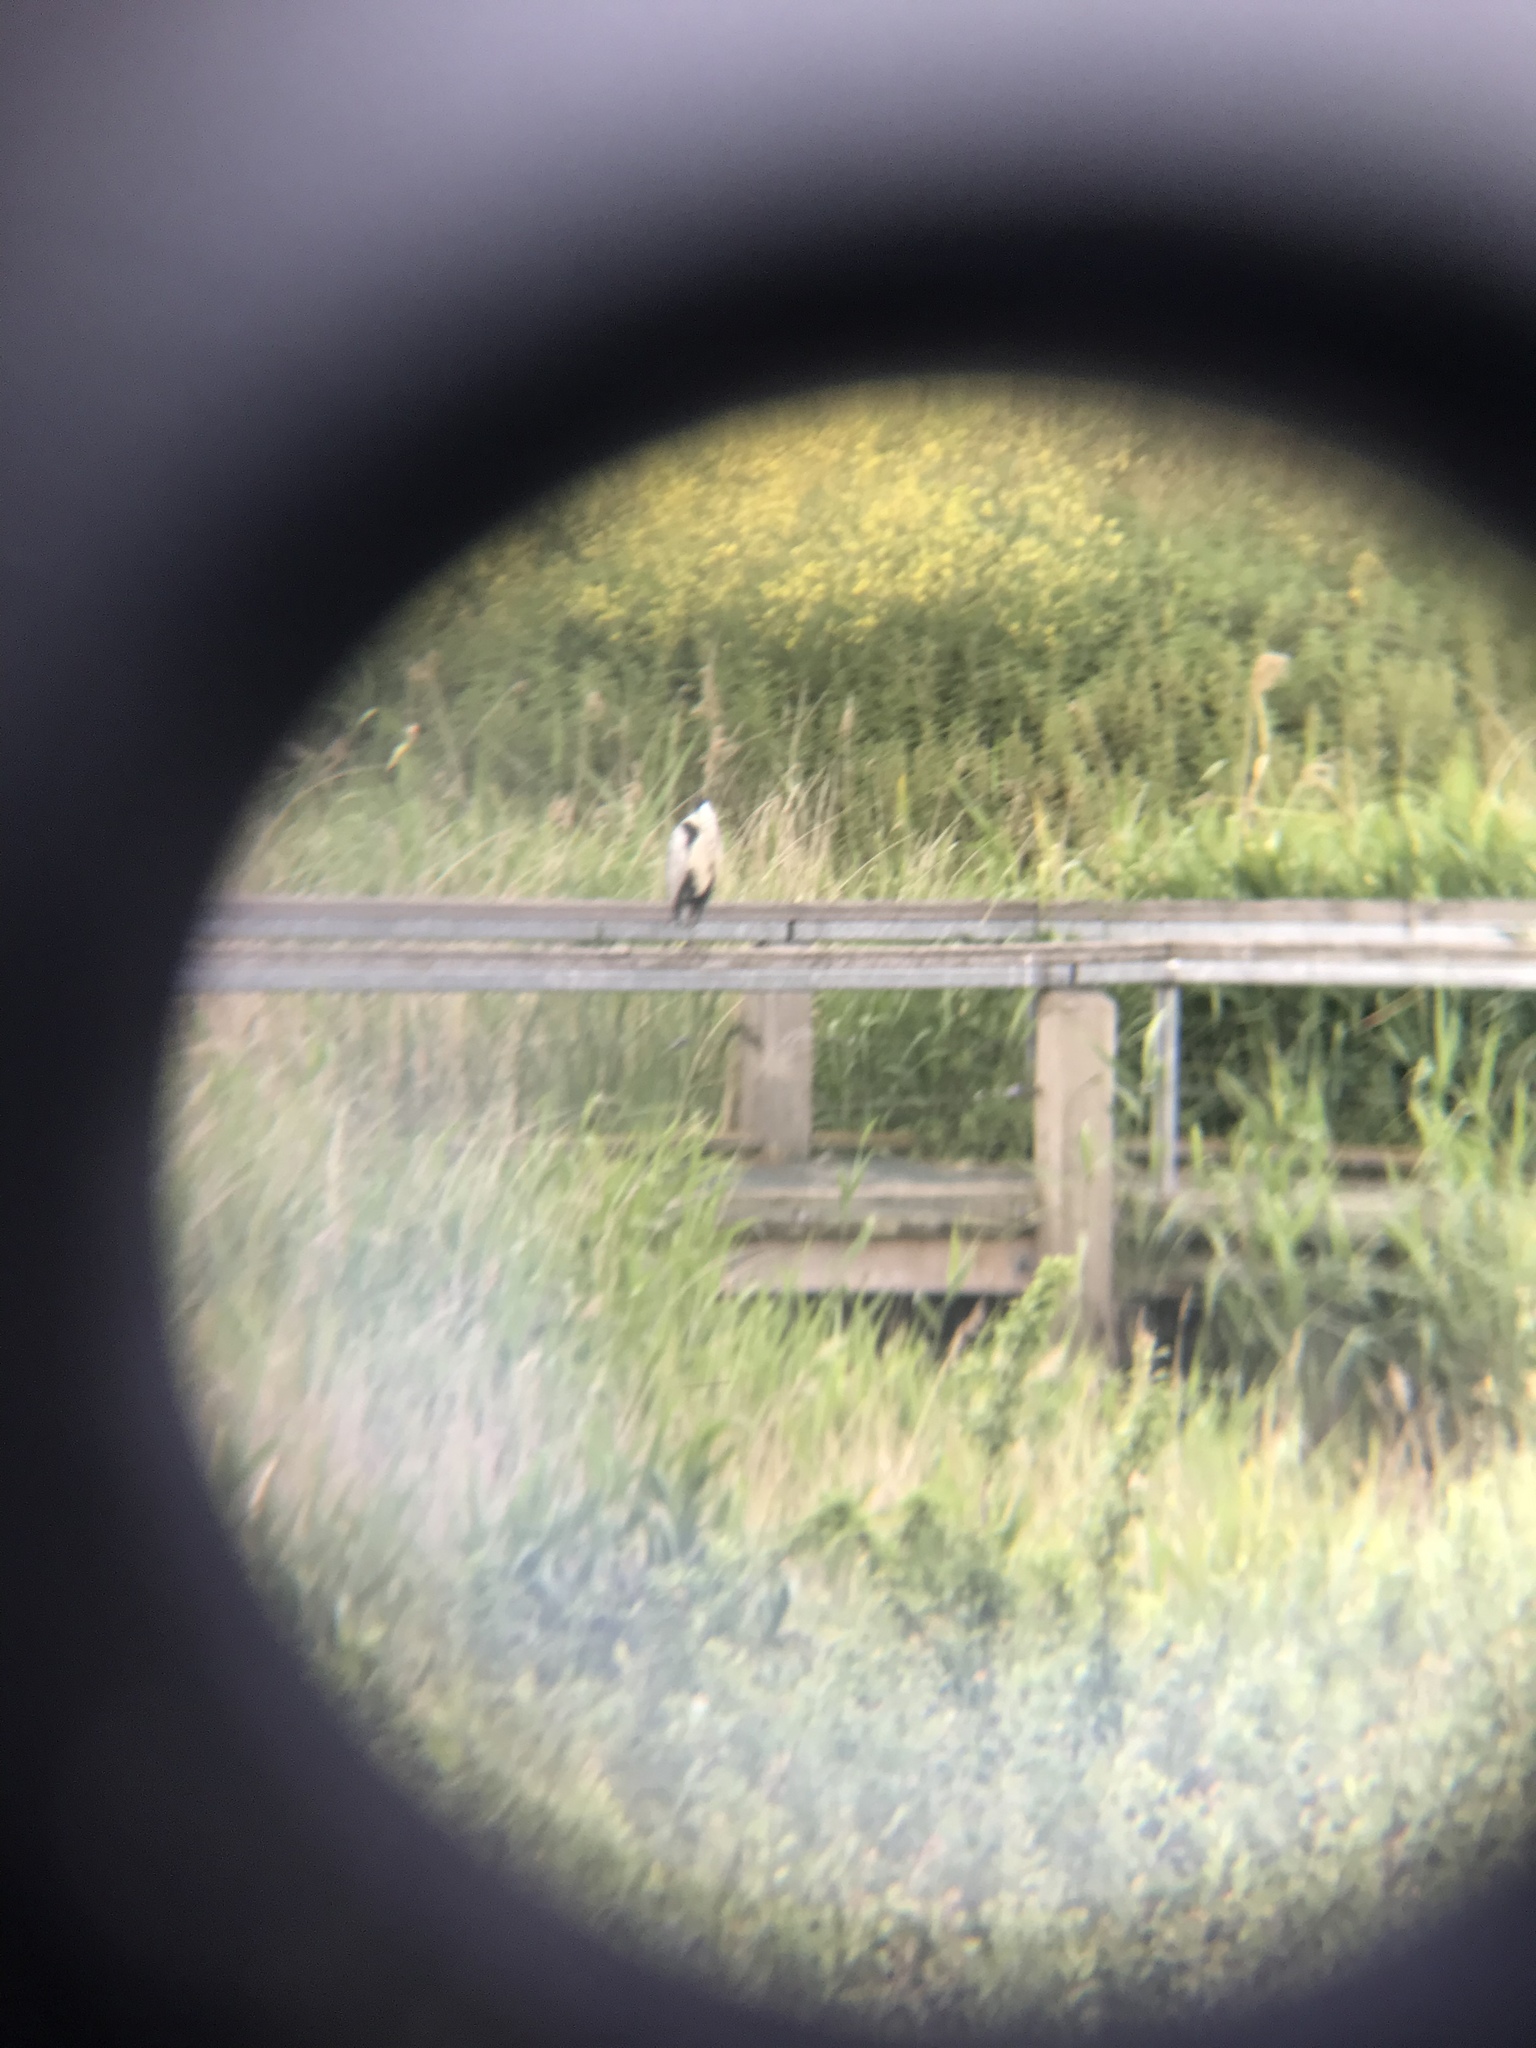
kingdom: Animalia
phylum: Chordata
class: Aves
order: Pelecaniformes
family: Ardeidae
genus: Ardea
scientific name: Ardea cinerea
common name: Grey heron
